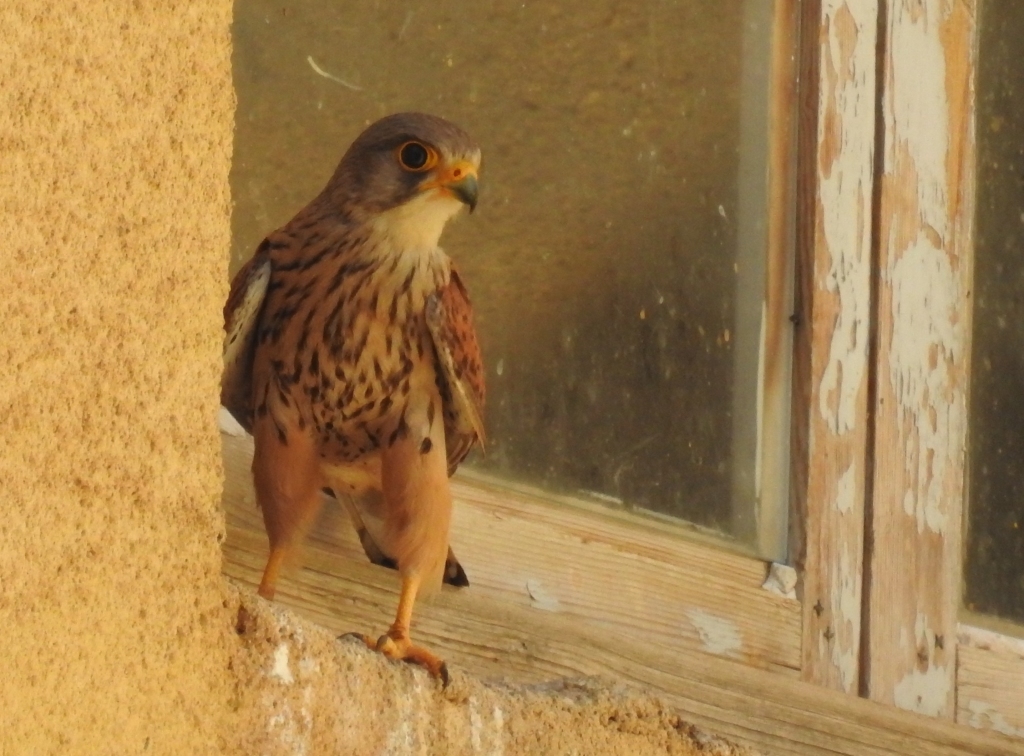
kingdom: Animalia
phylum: Chordata
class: Aves
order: Falconiformes
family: Falconidae
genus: Falco
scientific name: Falco tinnunculus
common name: Common kestrel
